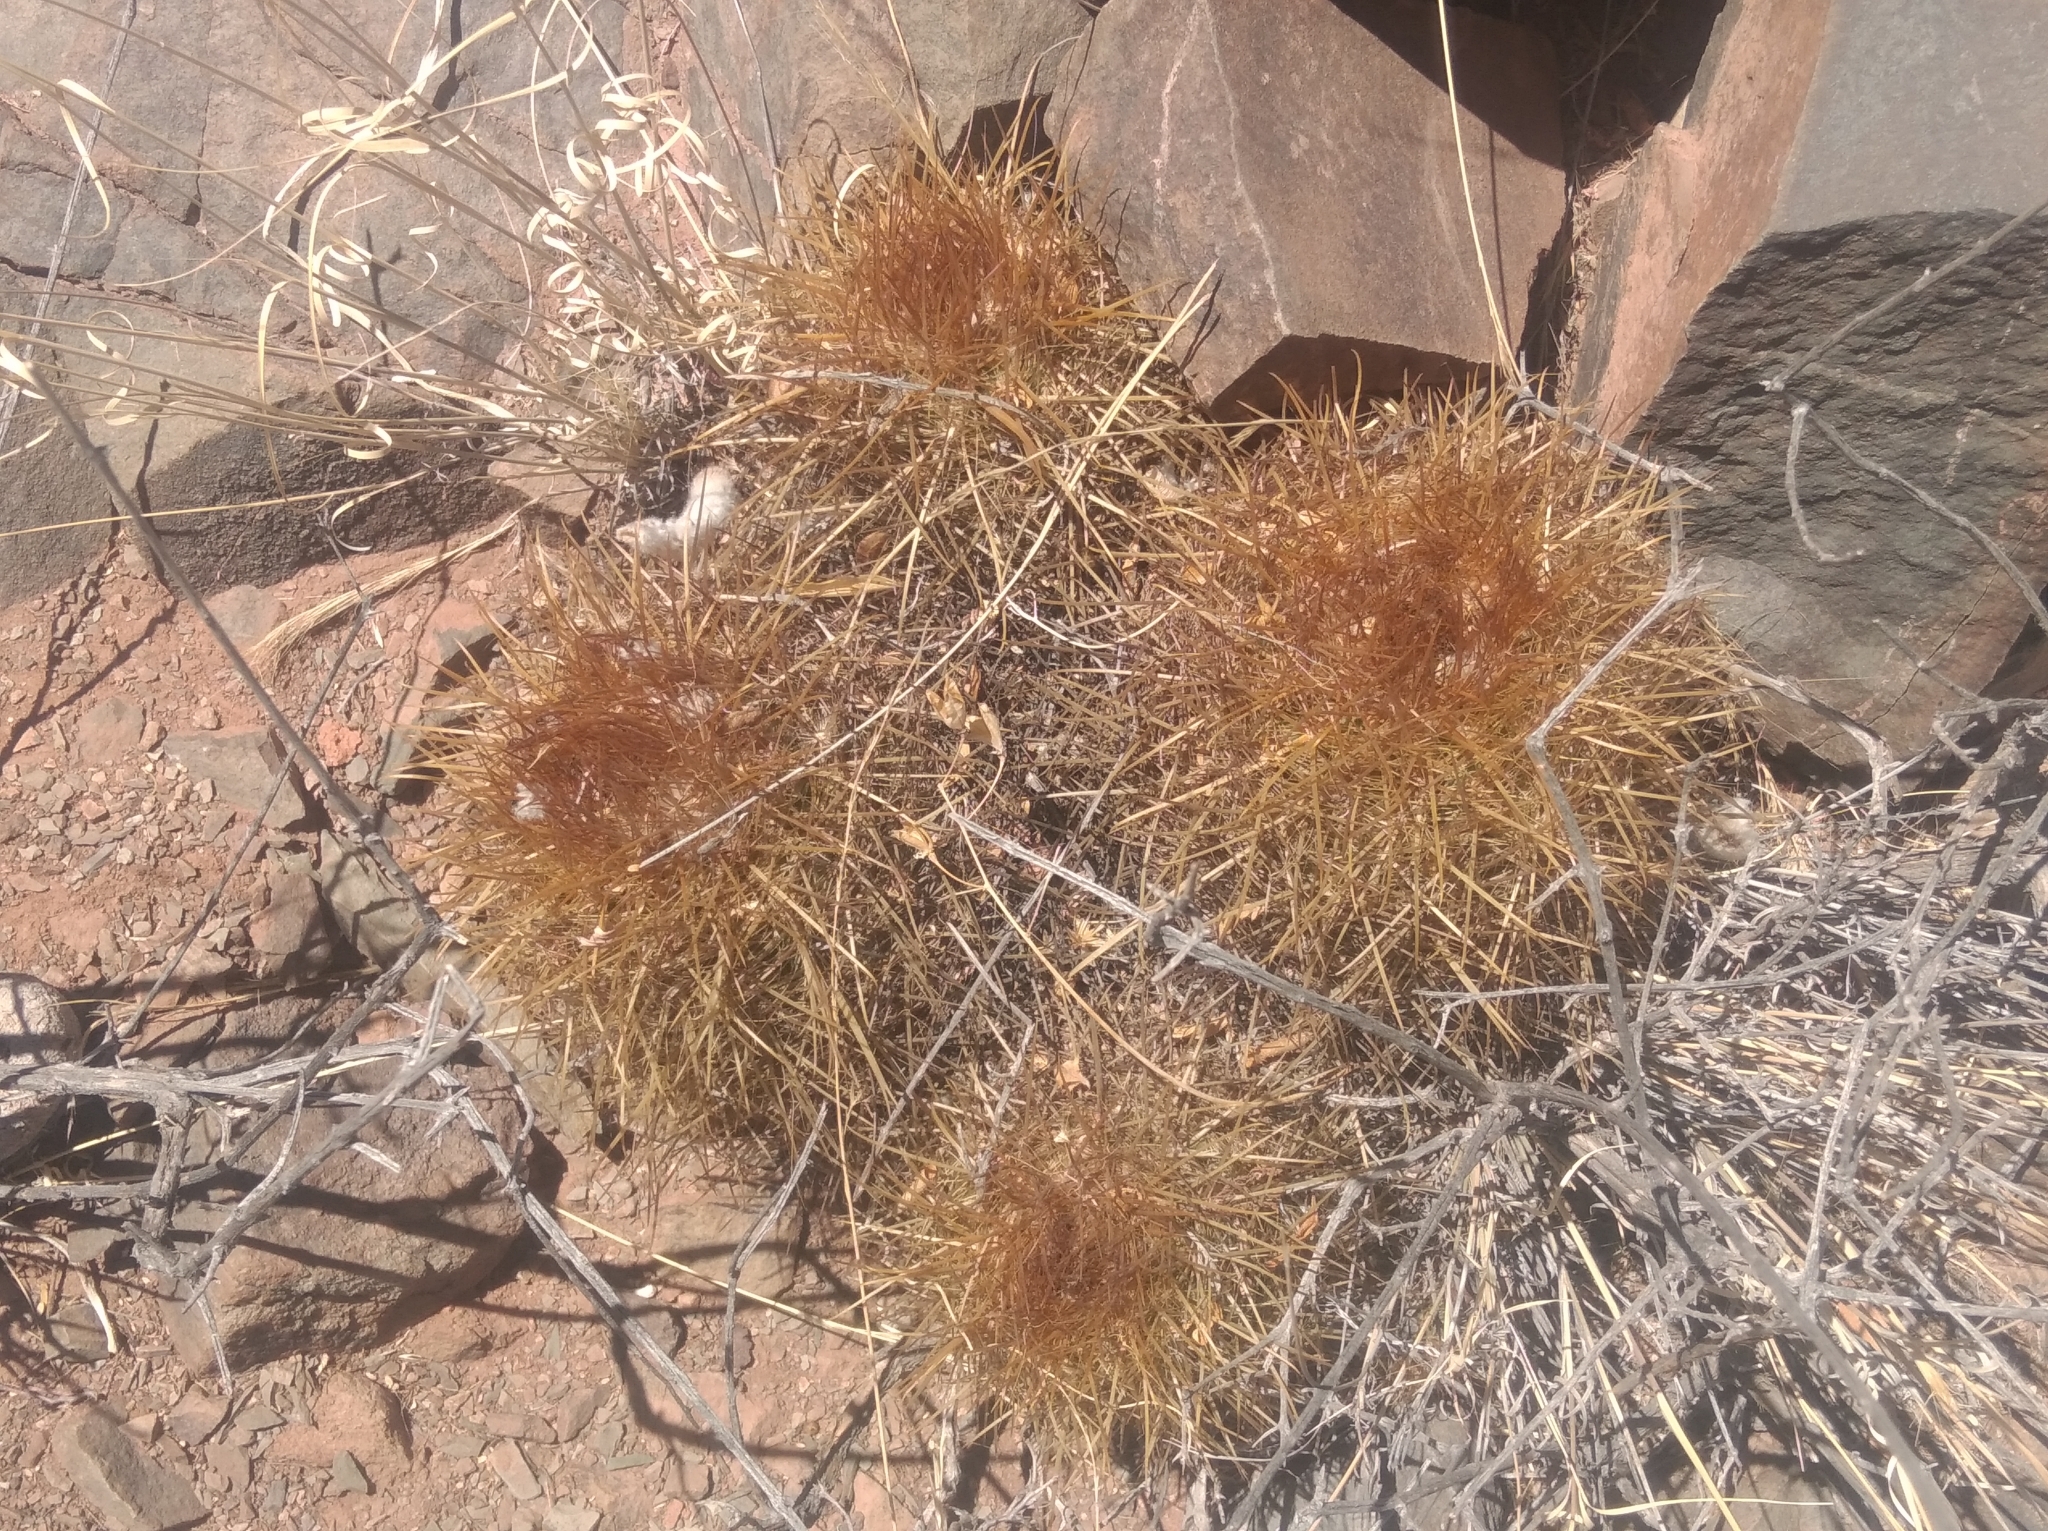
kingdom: Plantae
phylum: Tracheophyta
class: Magnoliopsida
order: Caryophyllales
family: Cactaceae
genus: Parodia
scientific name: Parodia stuemeri
